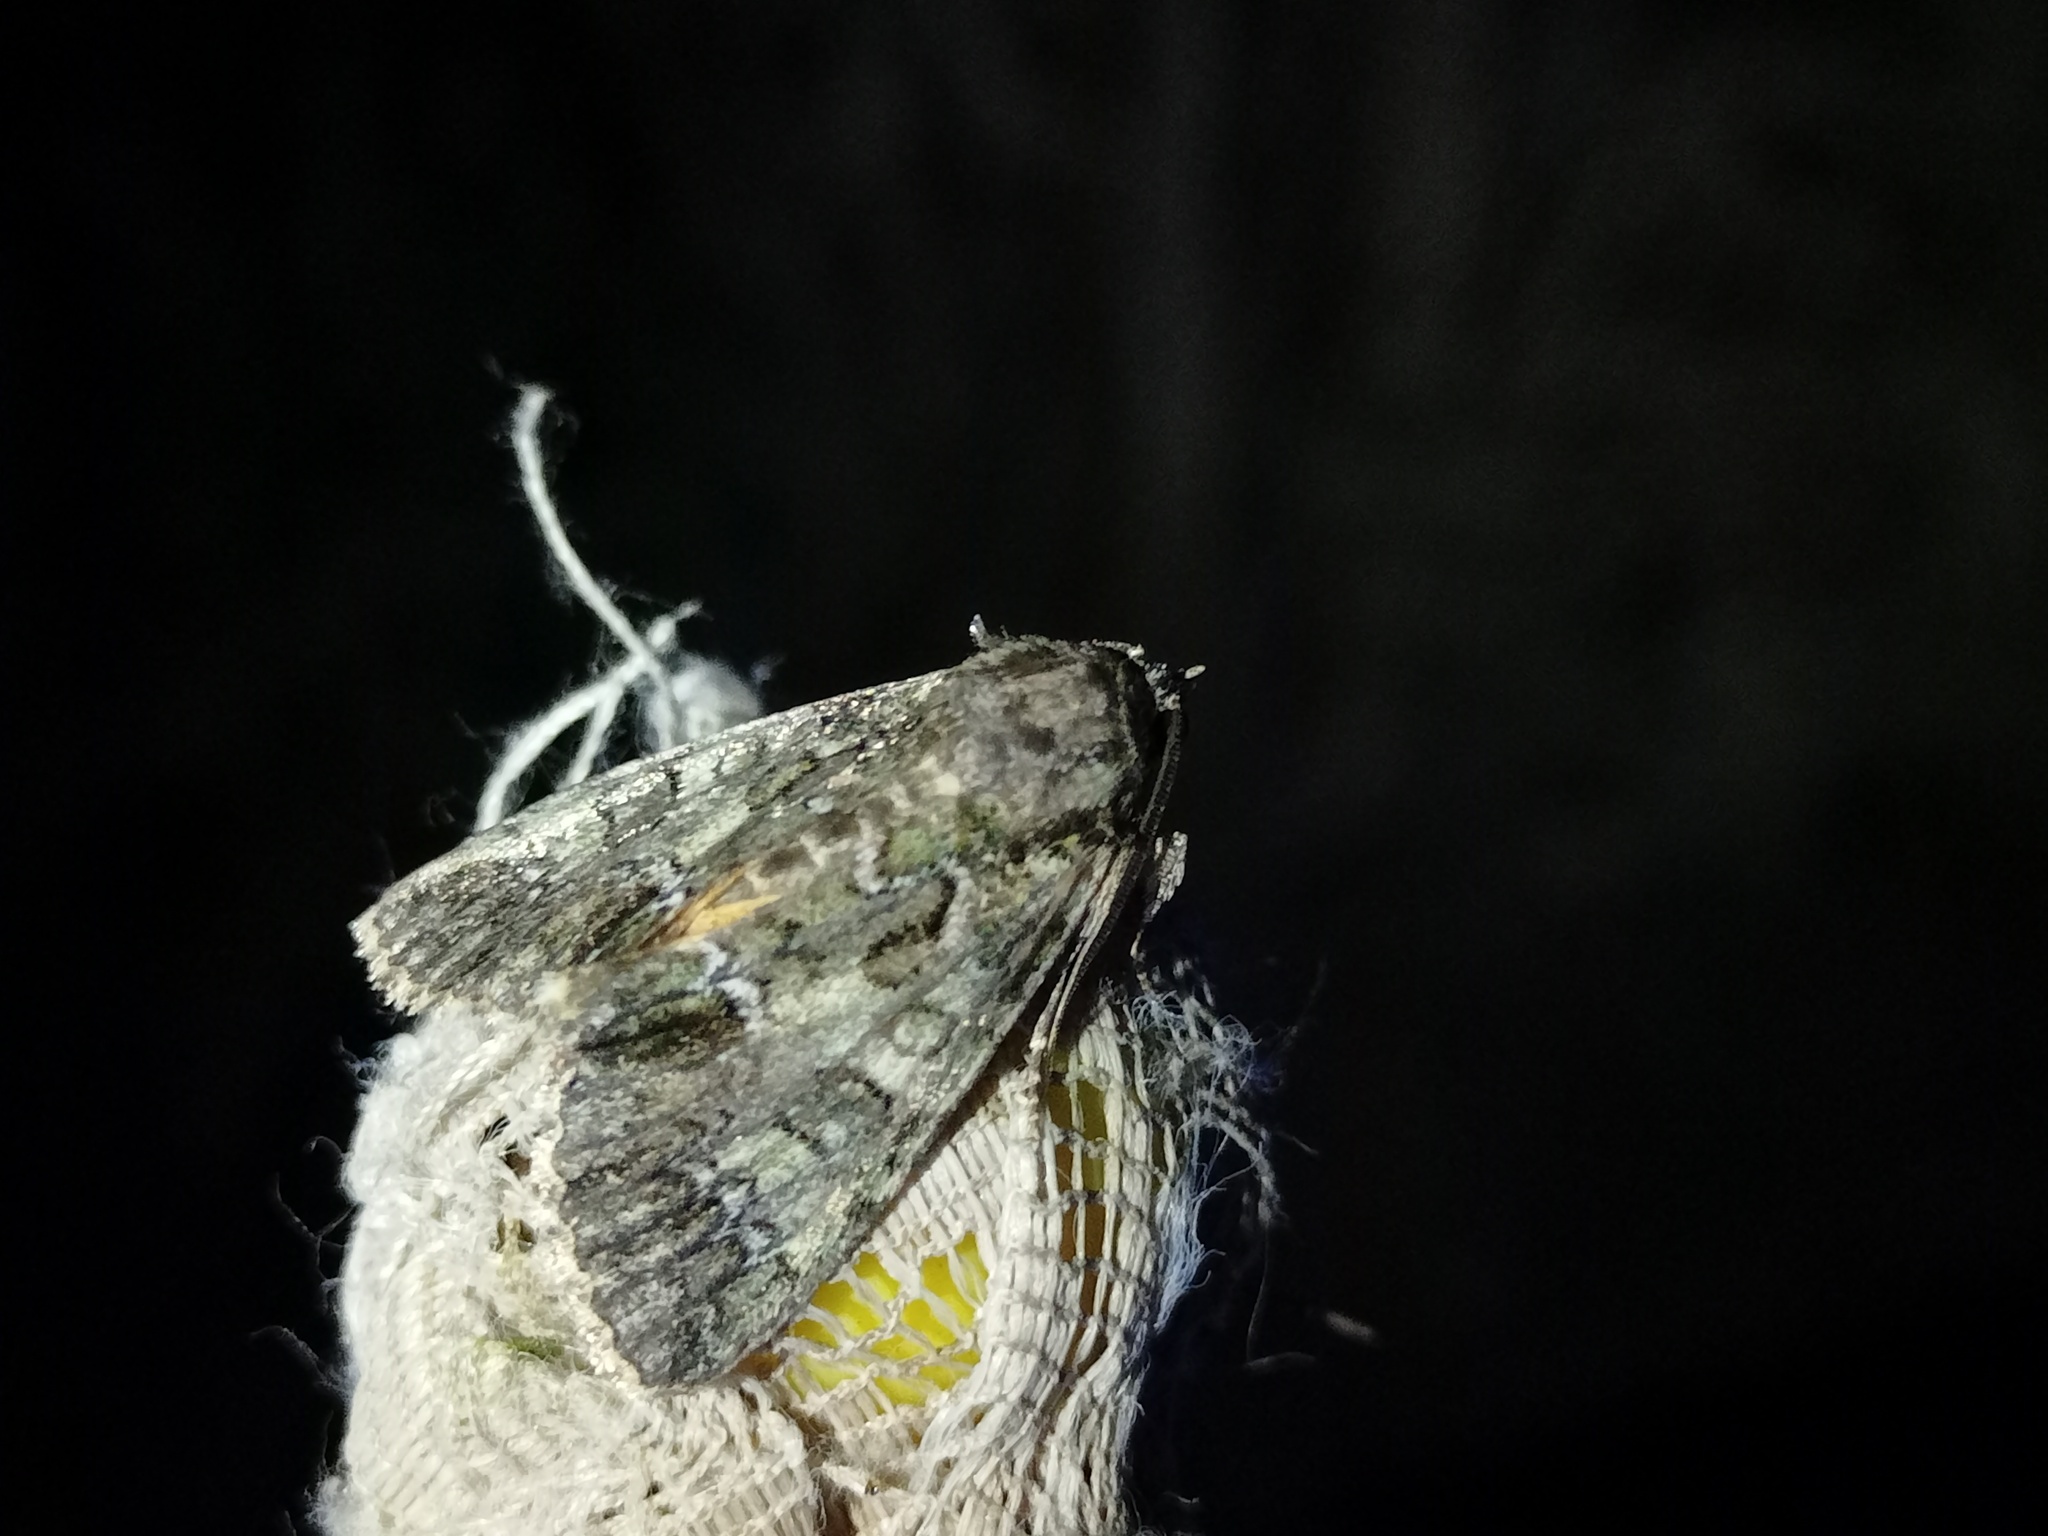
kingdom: Animalia
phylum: Arthropoda
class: Insecta
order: Lepidoptera
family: Noctuidae
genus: Polyphaenis
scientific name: Polyphaenis sericata
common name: Guernsey underwing
